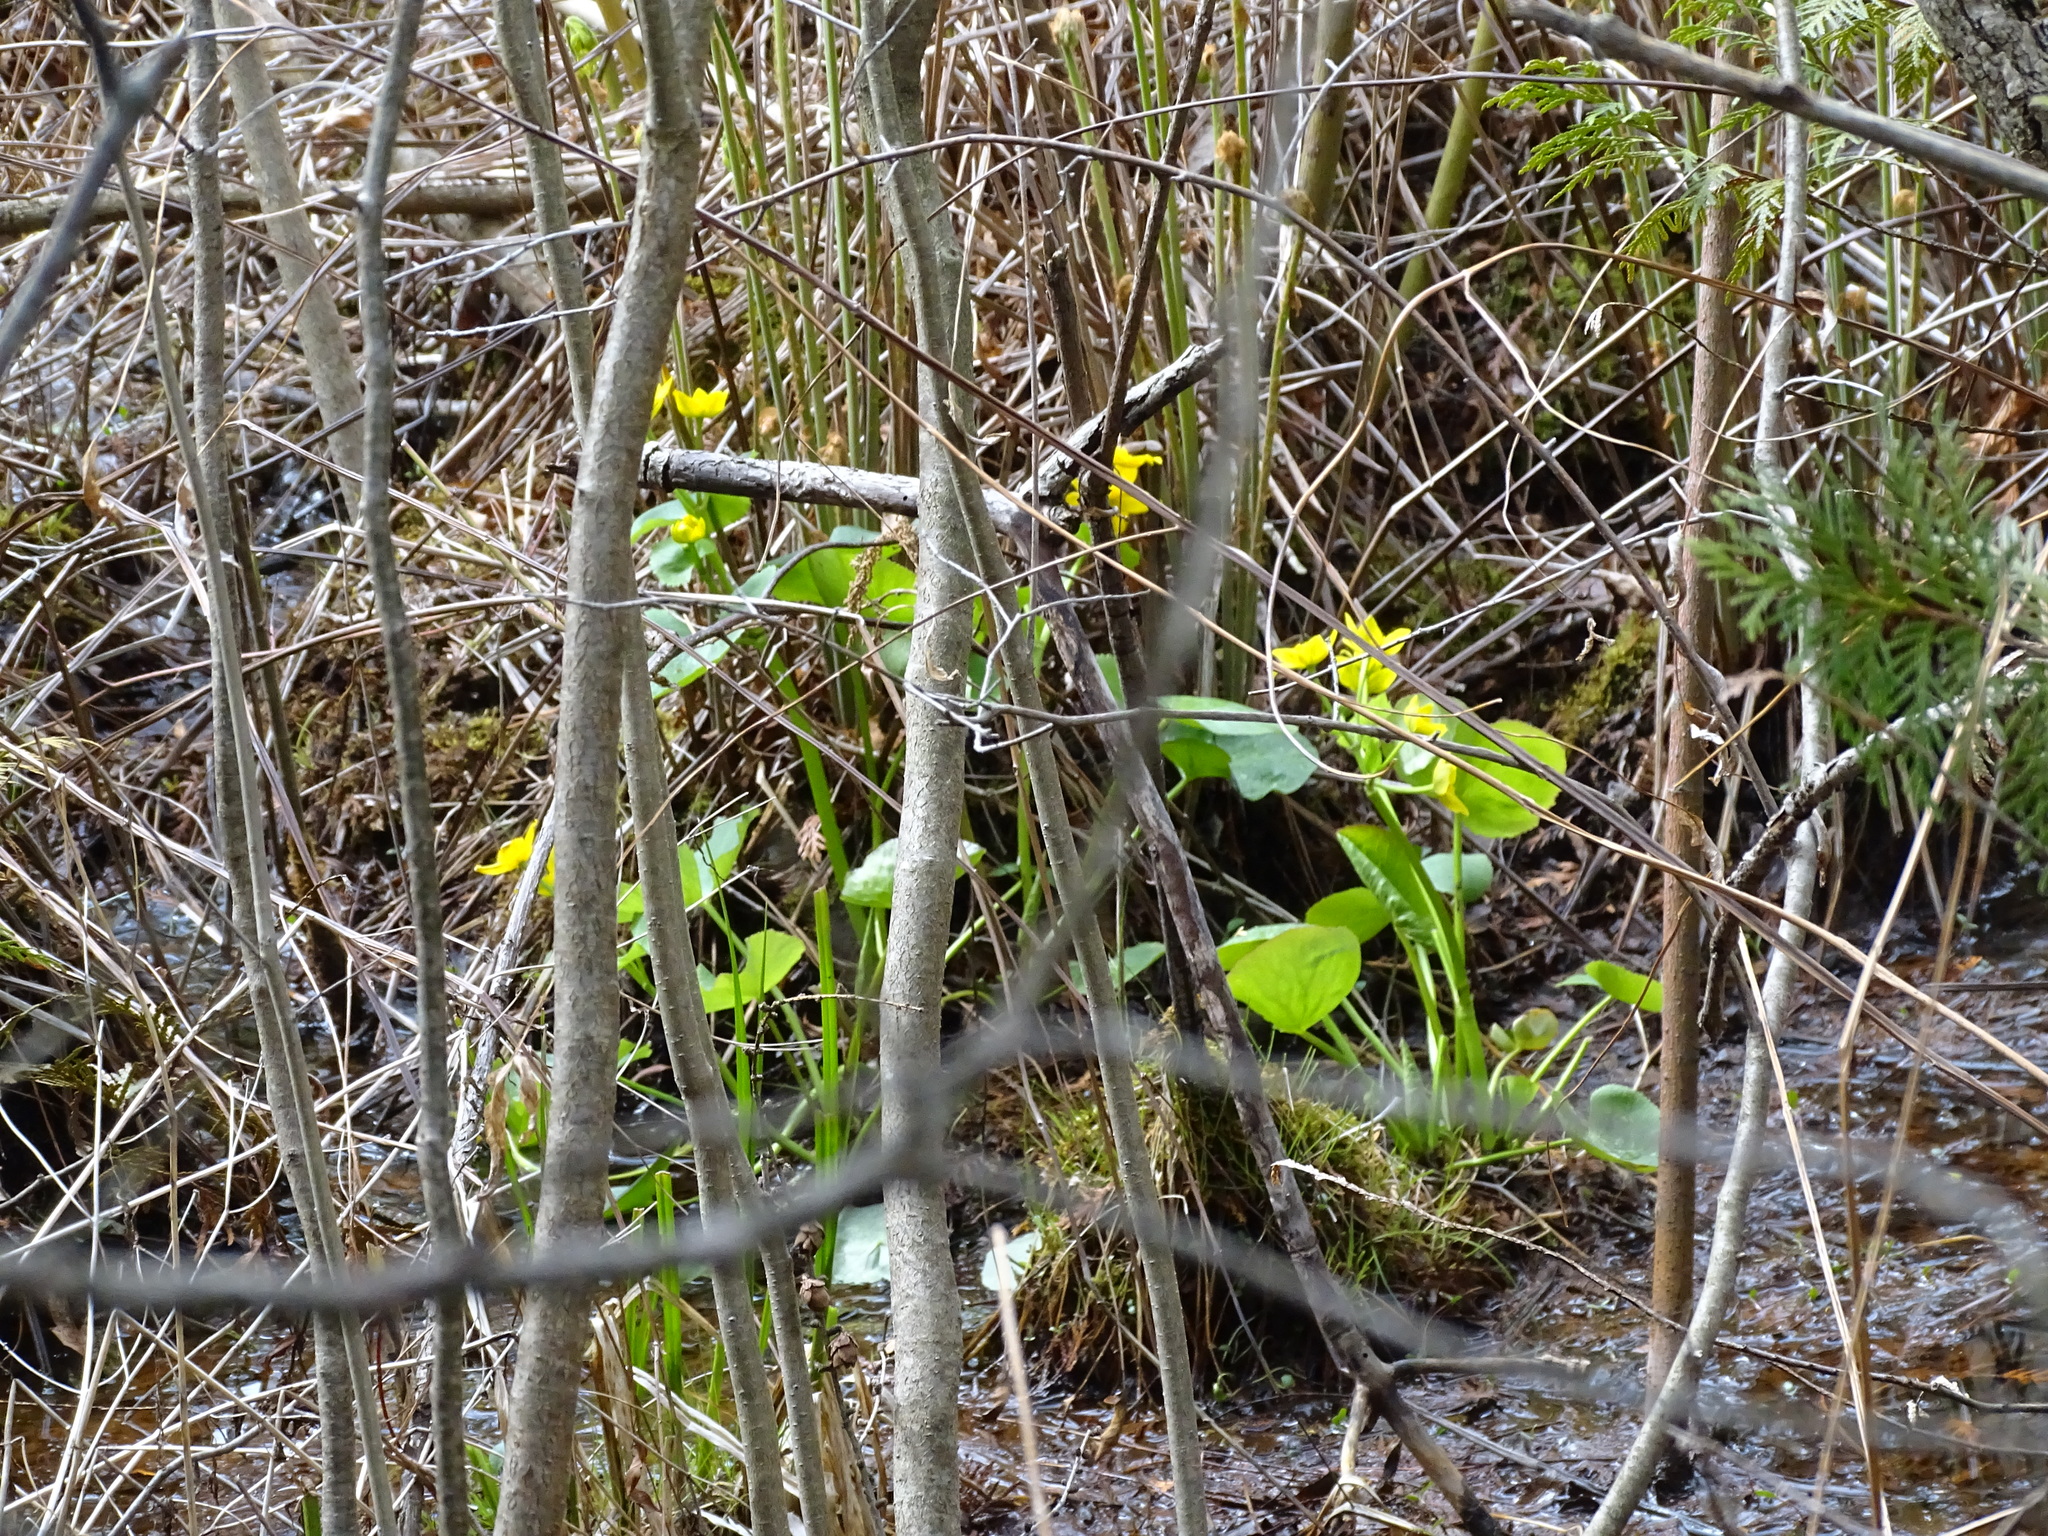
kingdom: Plantae
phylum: Tracheophyta
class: Magnoliopsida
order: Ranunculales
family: Ranunculaceae
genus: Caltha
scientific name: Caltha palustris
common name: Marsh marigold
